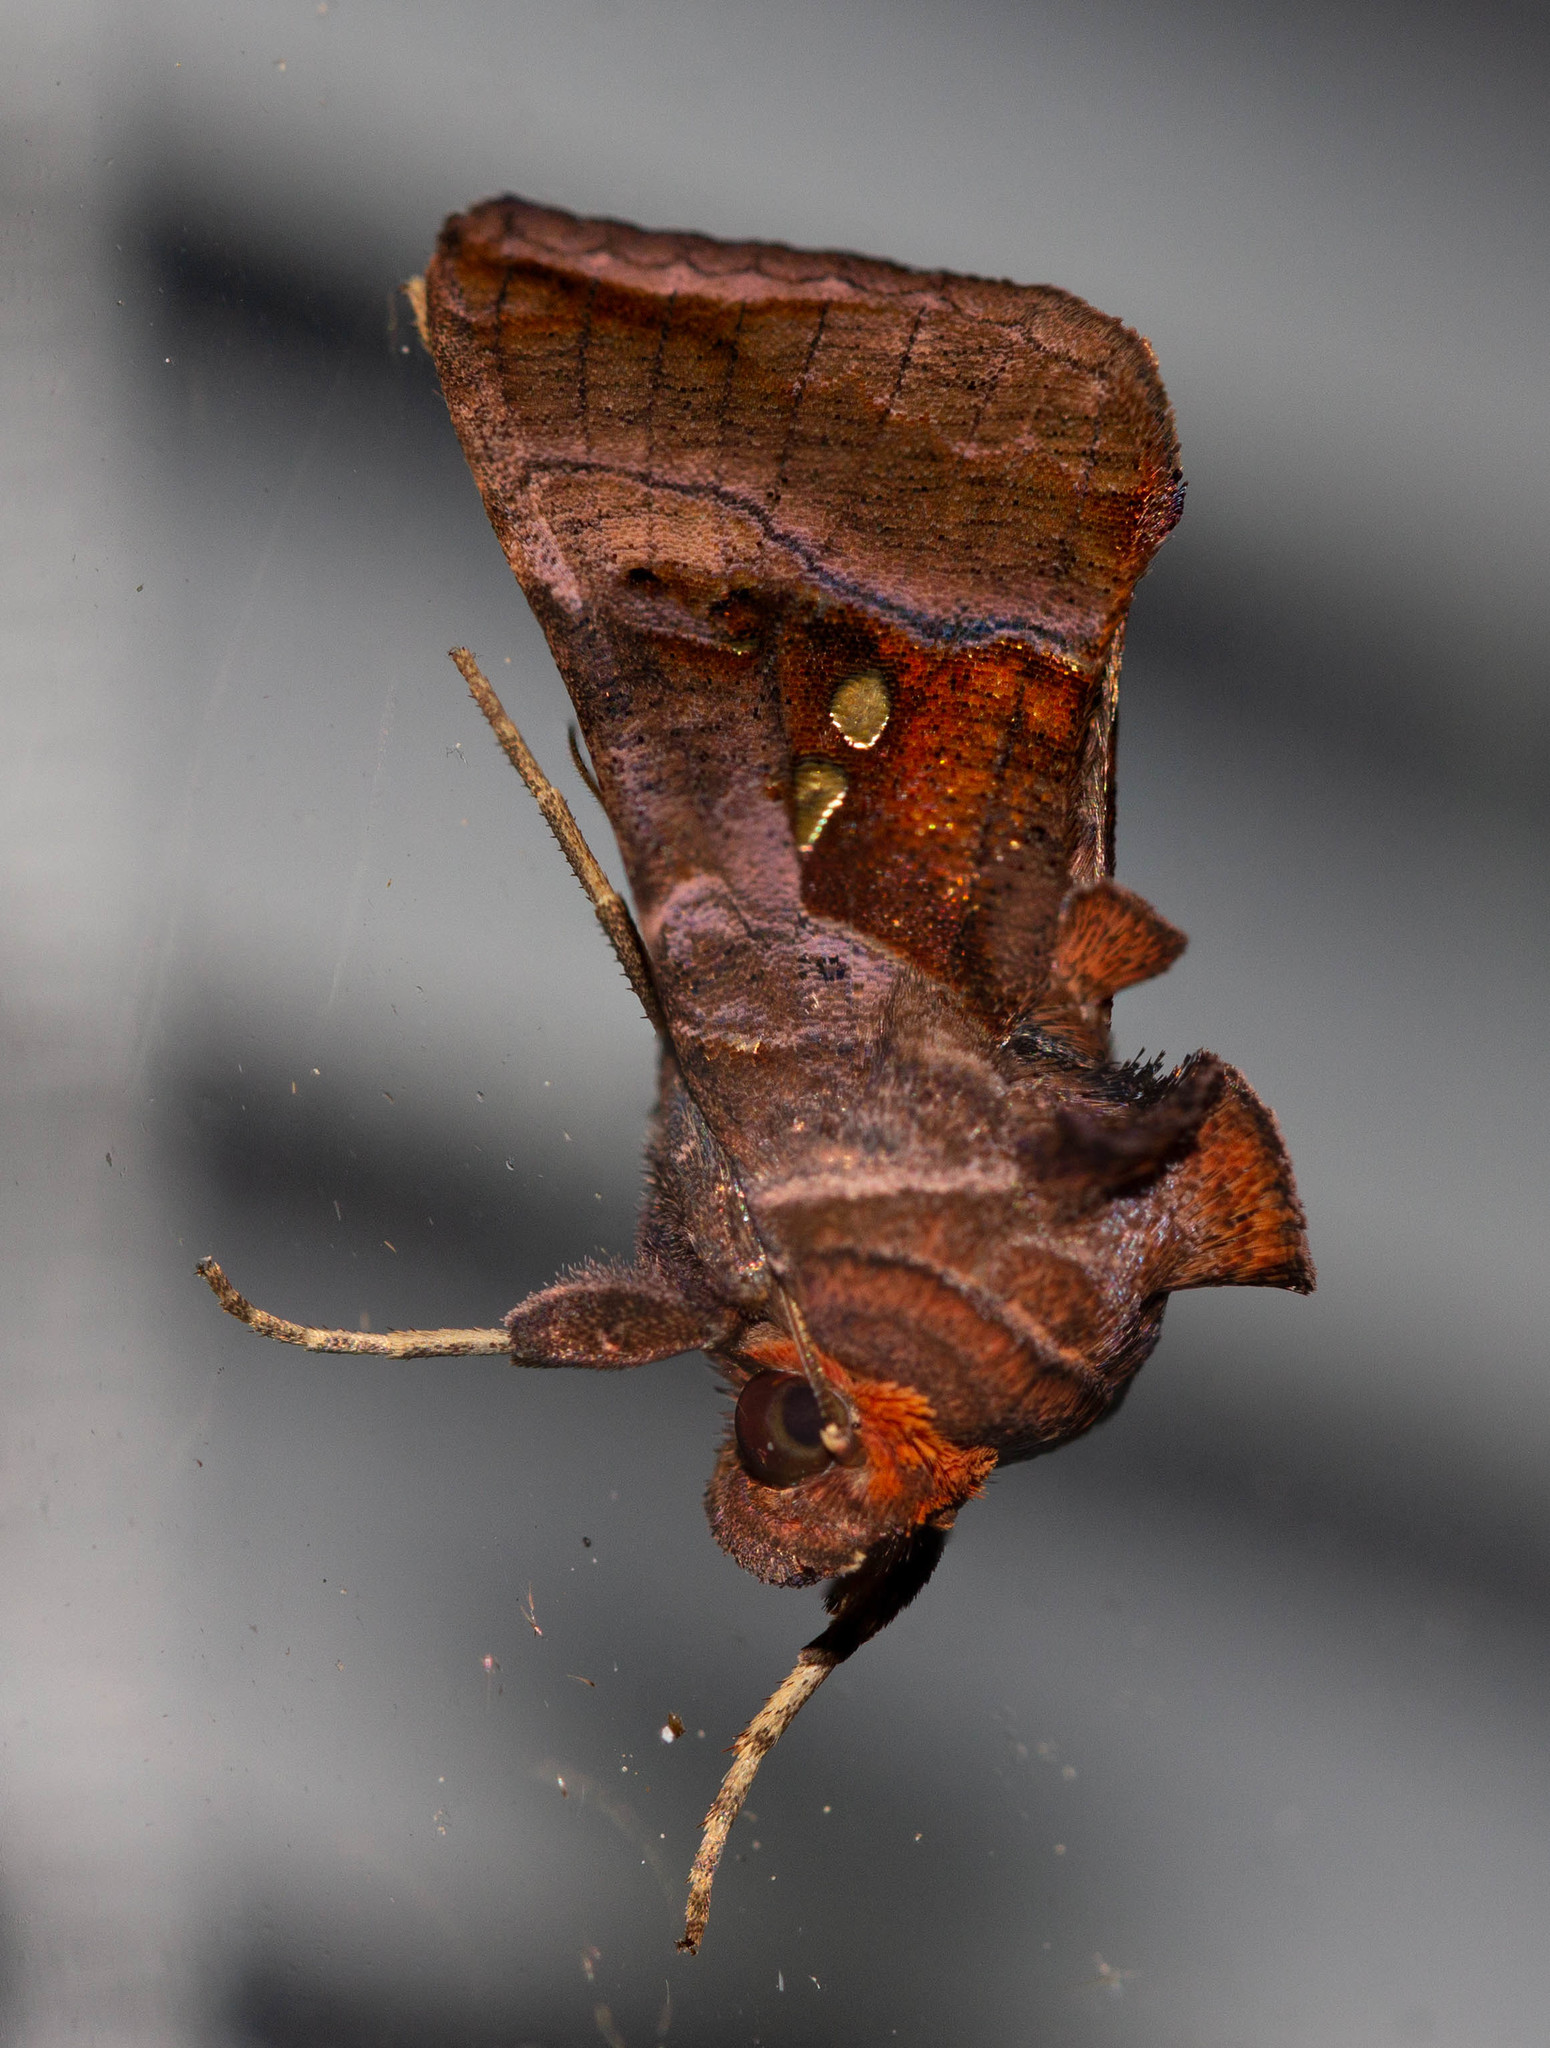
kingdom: Animalia
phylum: Arthropoda
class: Insecta
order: Lepidoptera
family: Noctuidae
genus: Enigmogramma
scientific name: Enigmogramma basigera
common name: Pink-washed looper moth
